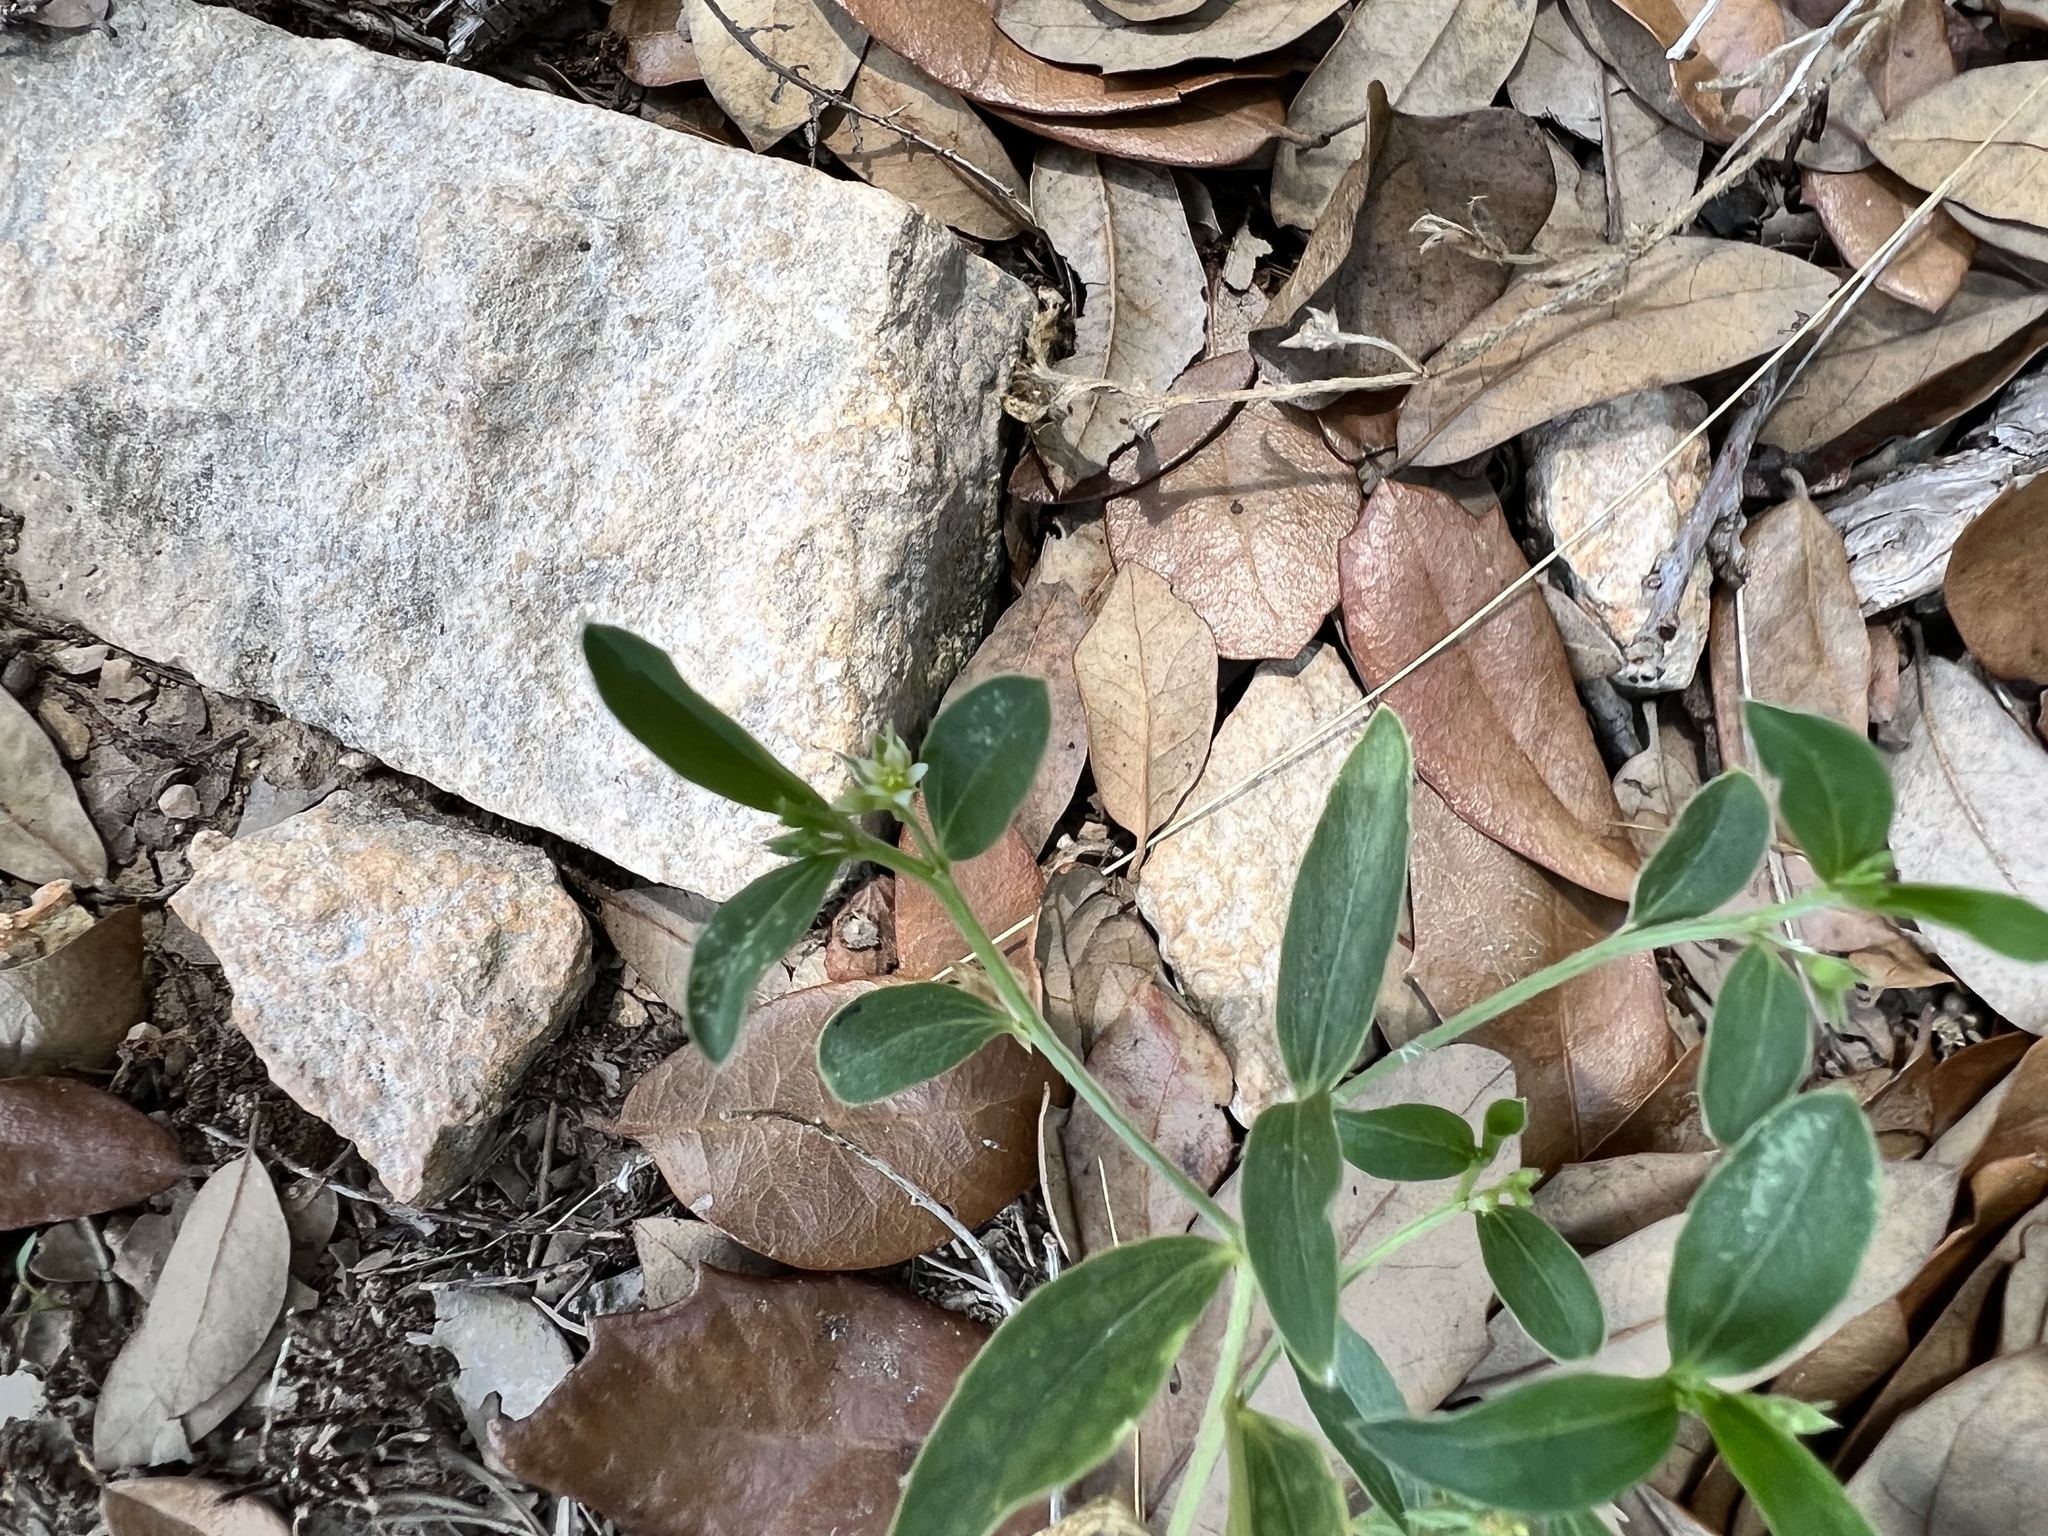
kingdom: Plantae
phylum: Tracheophyta
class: Magnoliopsida
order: Malpighiales
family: Euphorbiaceae
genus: Ditaxis
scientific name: Ditaxis humilis
